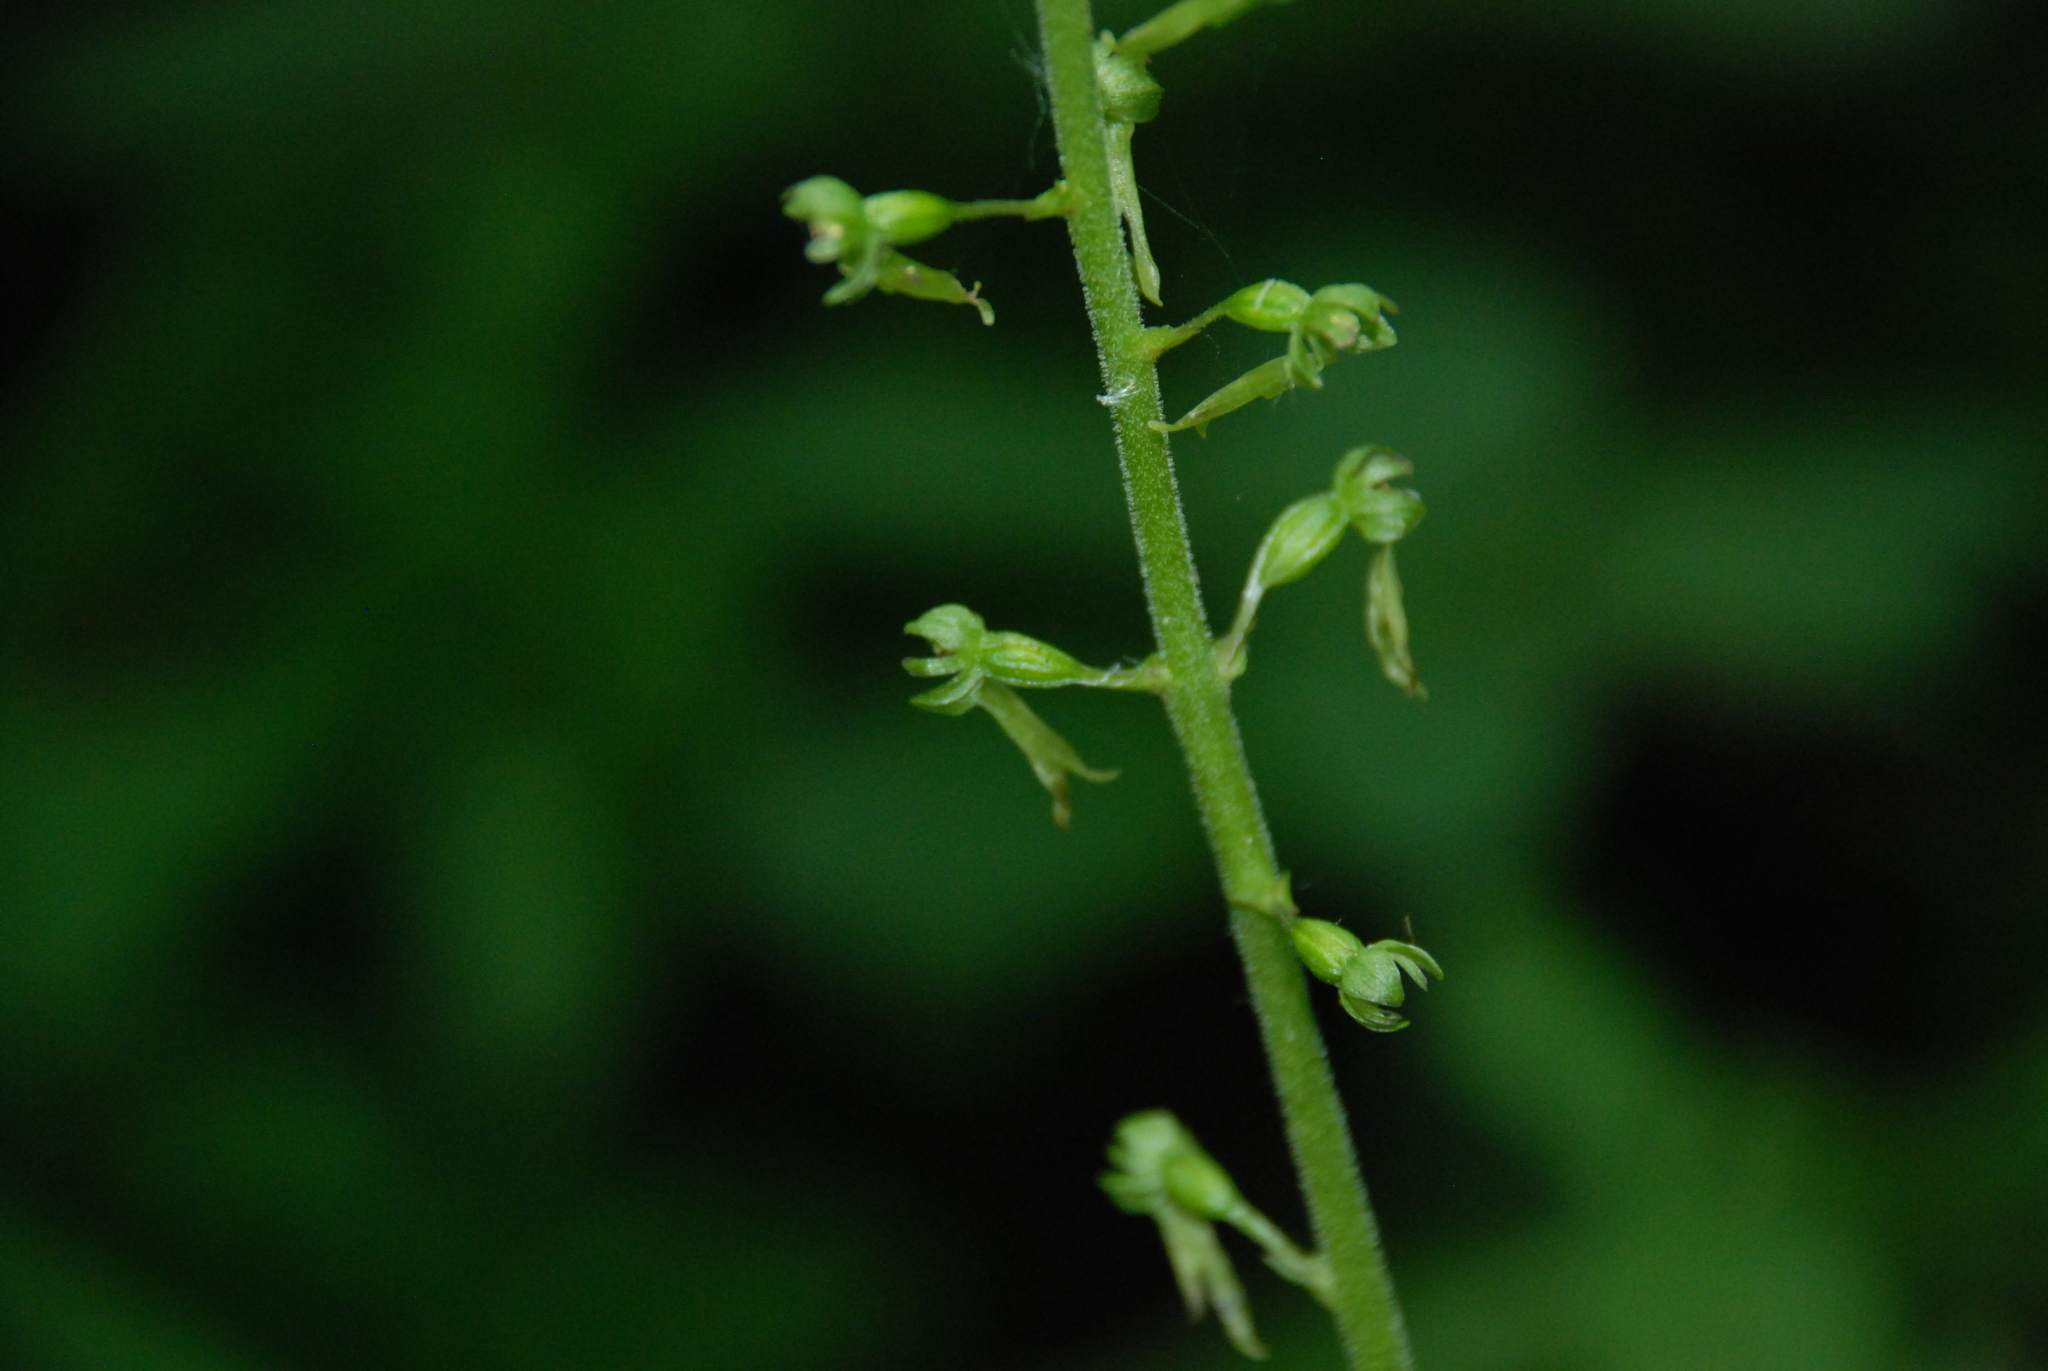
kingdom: Plantae
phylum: Tracheophyta
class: Liliopsida
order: Asparagales
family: Orchidaceae
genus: Neottia
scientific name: Neottia ovata
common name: Common twayblade
